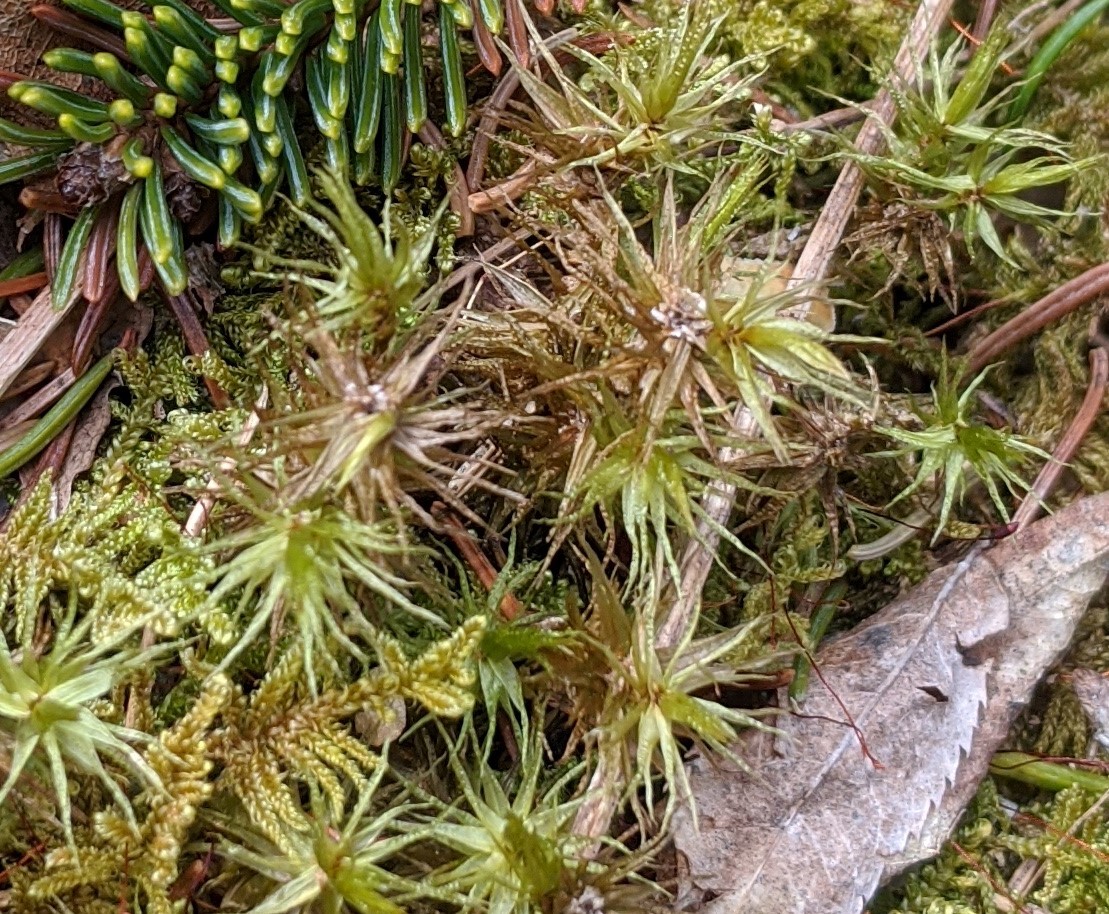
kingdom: Plantae
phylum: Bryophyta
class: Bryopsida
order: Dicranales
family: Dicranaceae
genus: Dicranum
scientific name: Dicranum polysetum
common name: Rugose fork-moss
